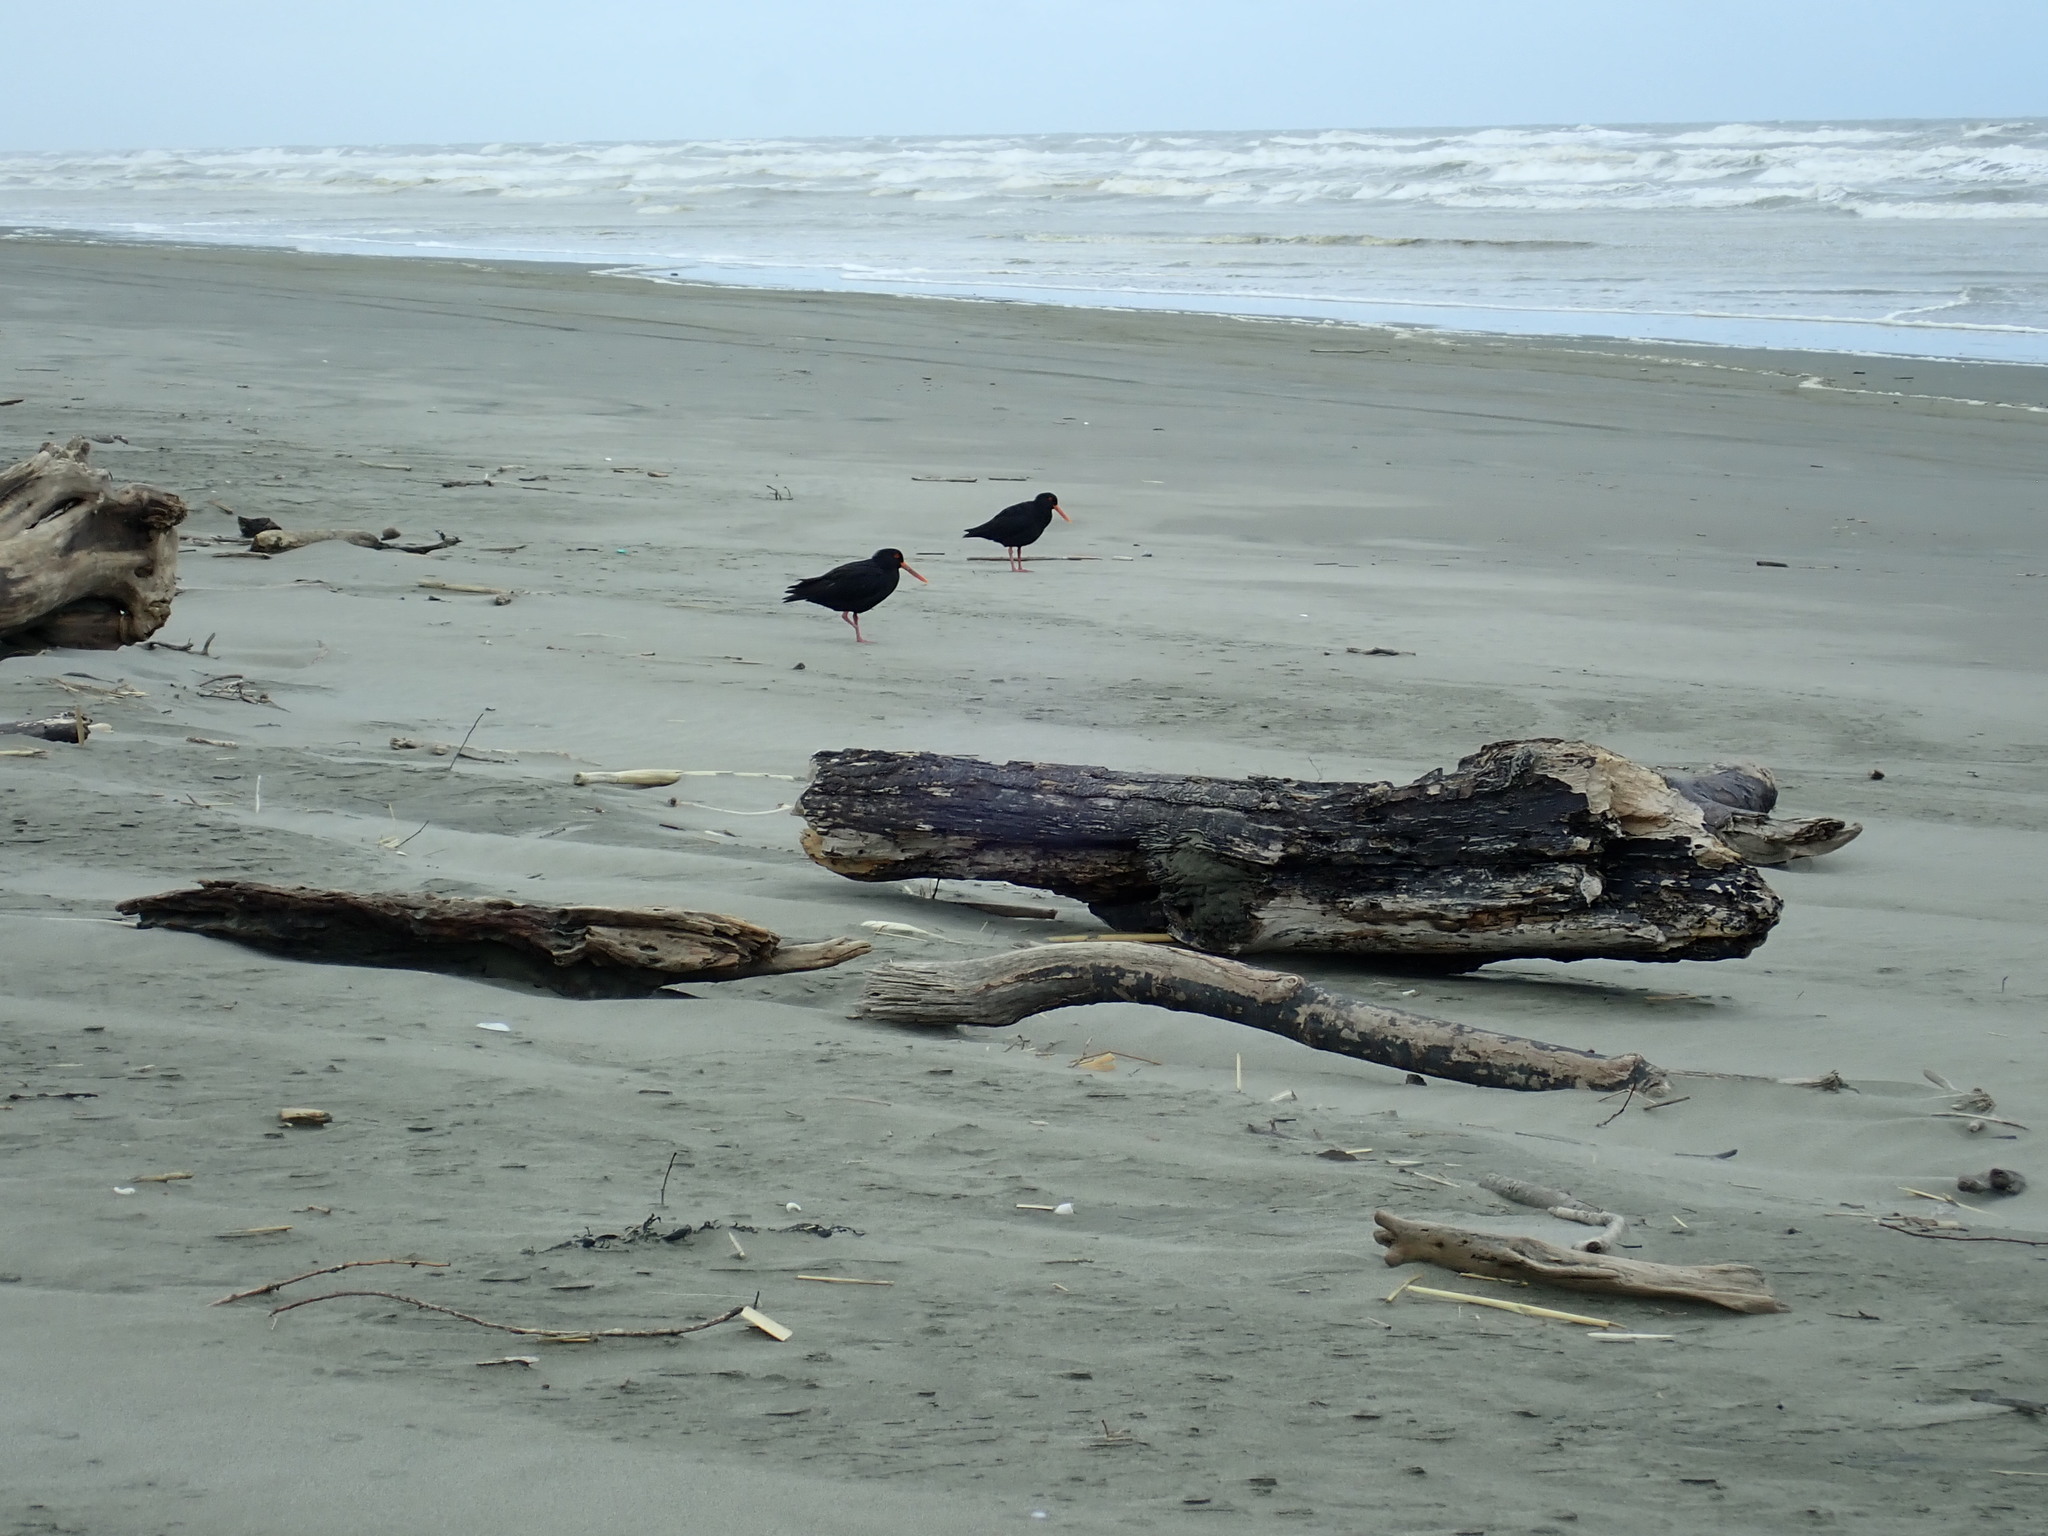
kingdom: Animalia
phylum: Chordata
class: Aves
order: Charadriiformes
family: Haematopodidae
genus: Haematopus
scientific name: Haematopus unicolor
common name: Variable oystercatcher
